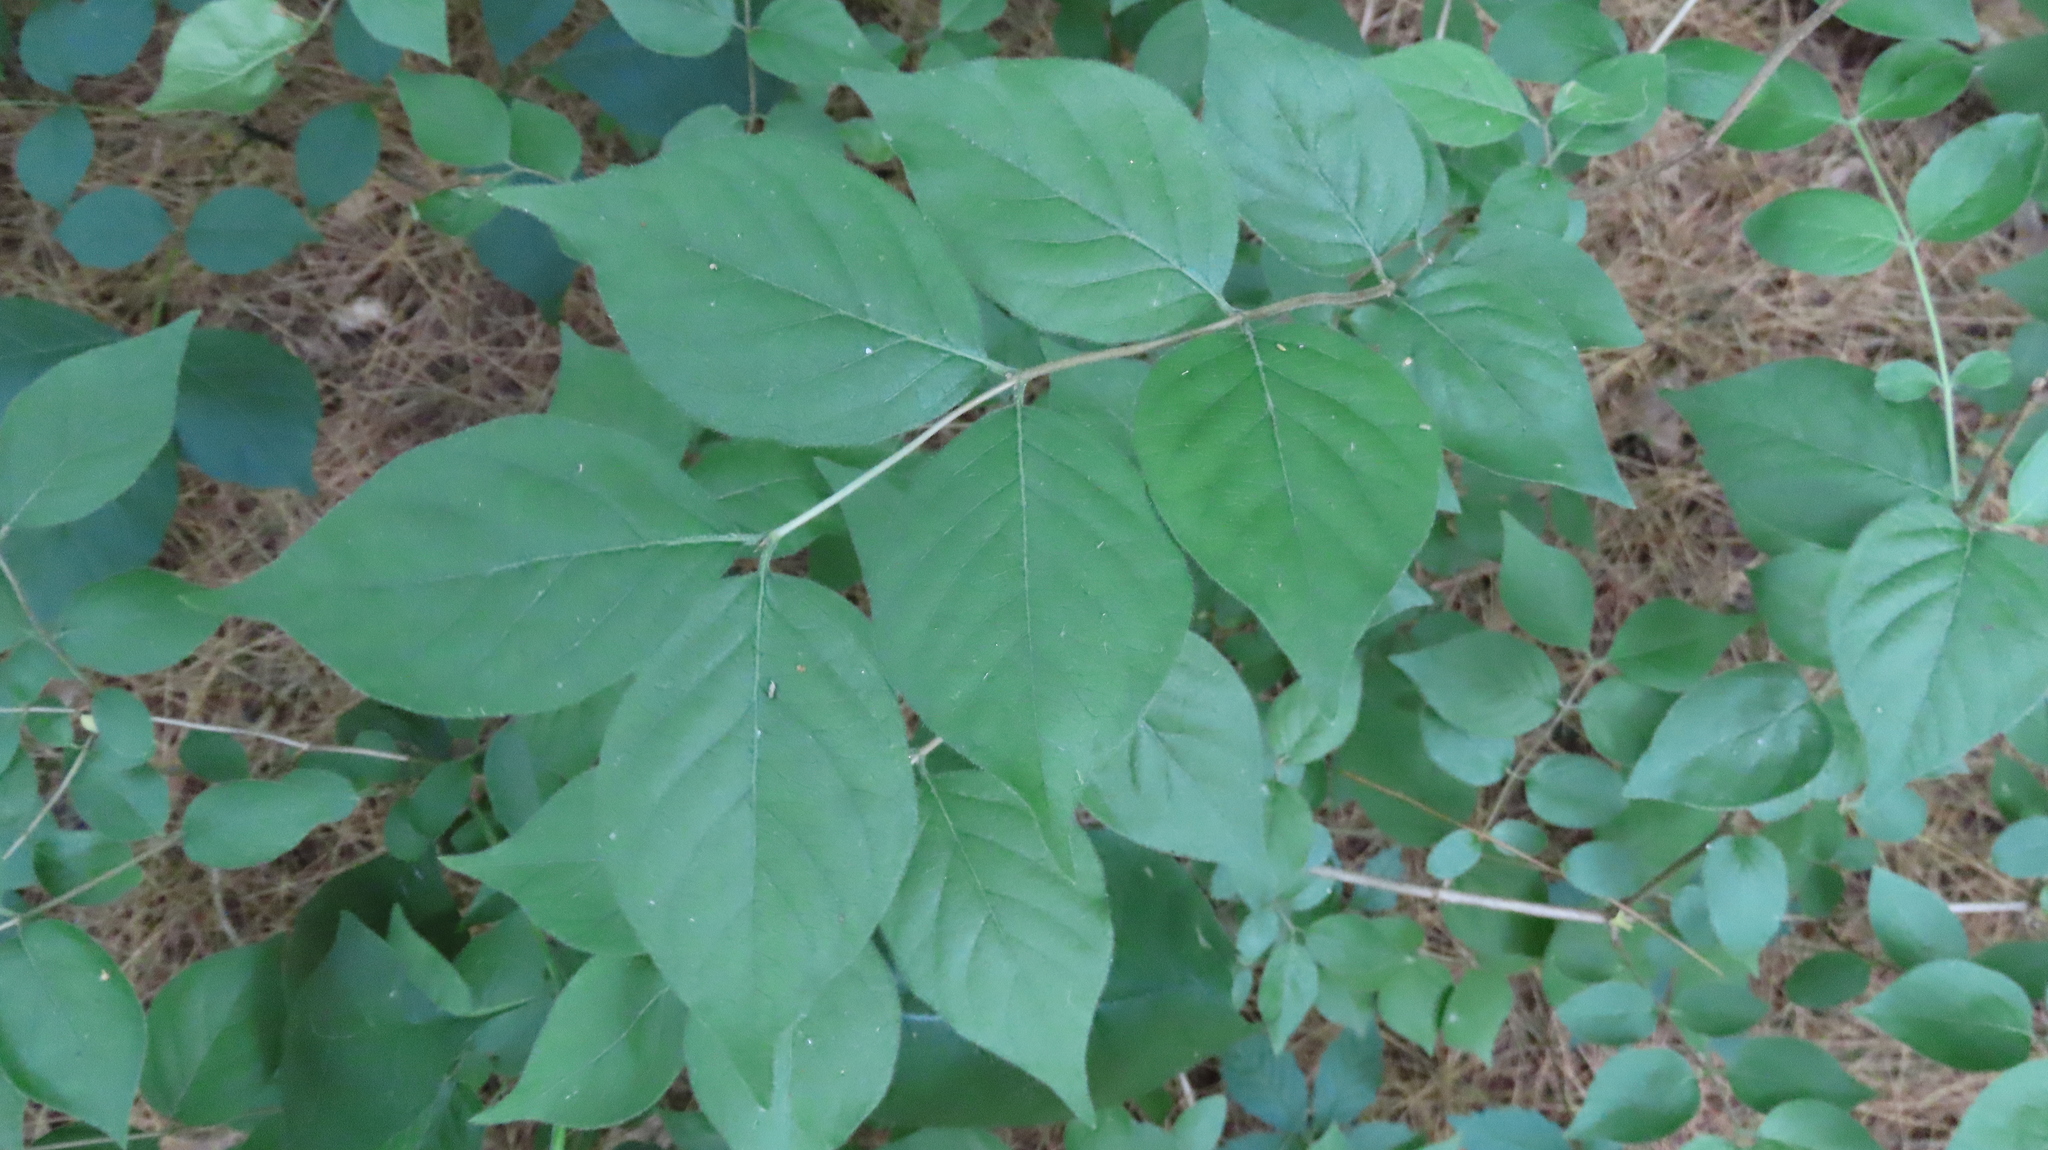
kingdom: Plantae
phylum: Tracheophyta
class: Magnoliopsida
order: Dipsacales
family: Caprifoliaceae
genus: Lonicera
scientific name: Lonicera maackii
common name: Amur honeysuckle
